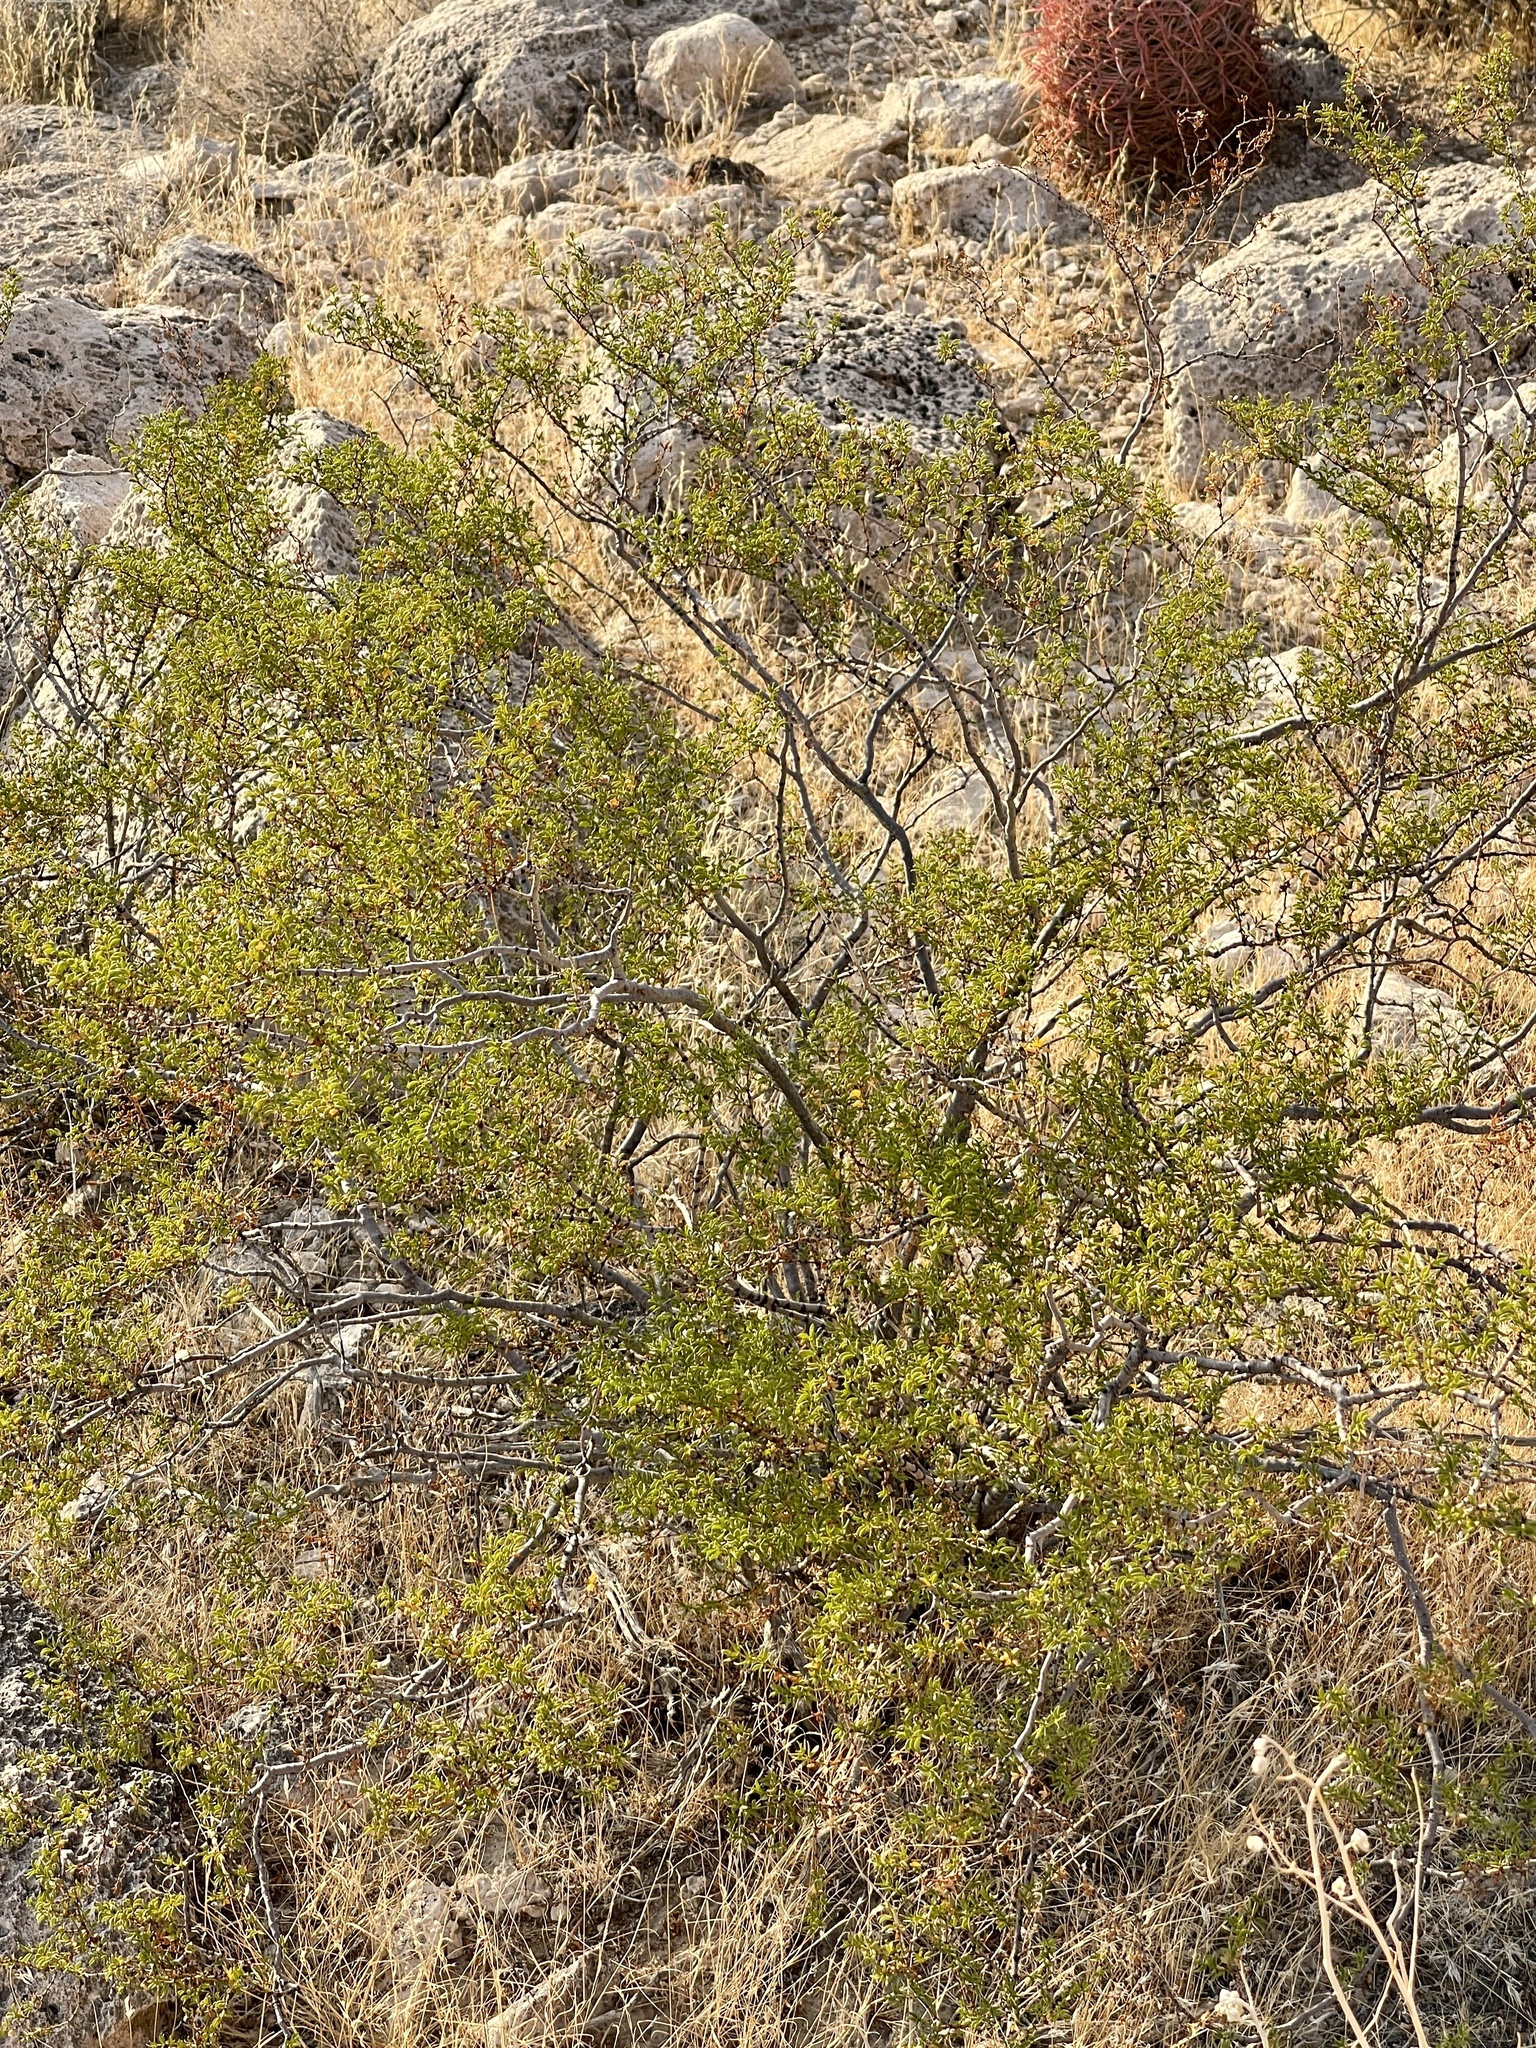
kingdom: Plantae
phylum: Tracheophyta
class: Magnoliopsida
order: Zygophyllales
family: Zygophyllaceae
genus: Larrea
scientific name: Larrea tridentata
